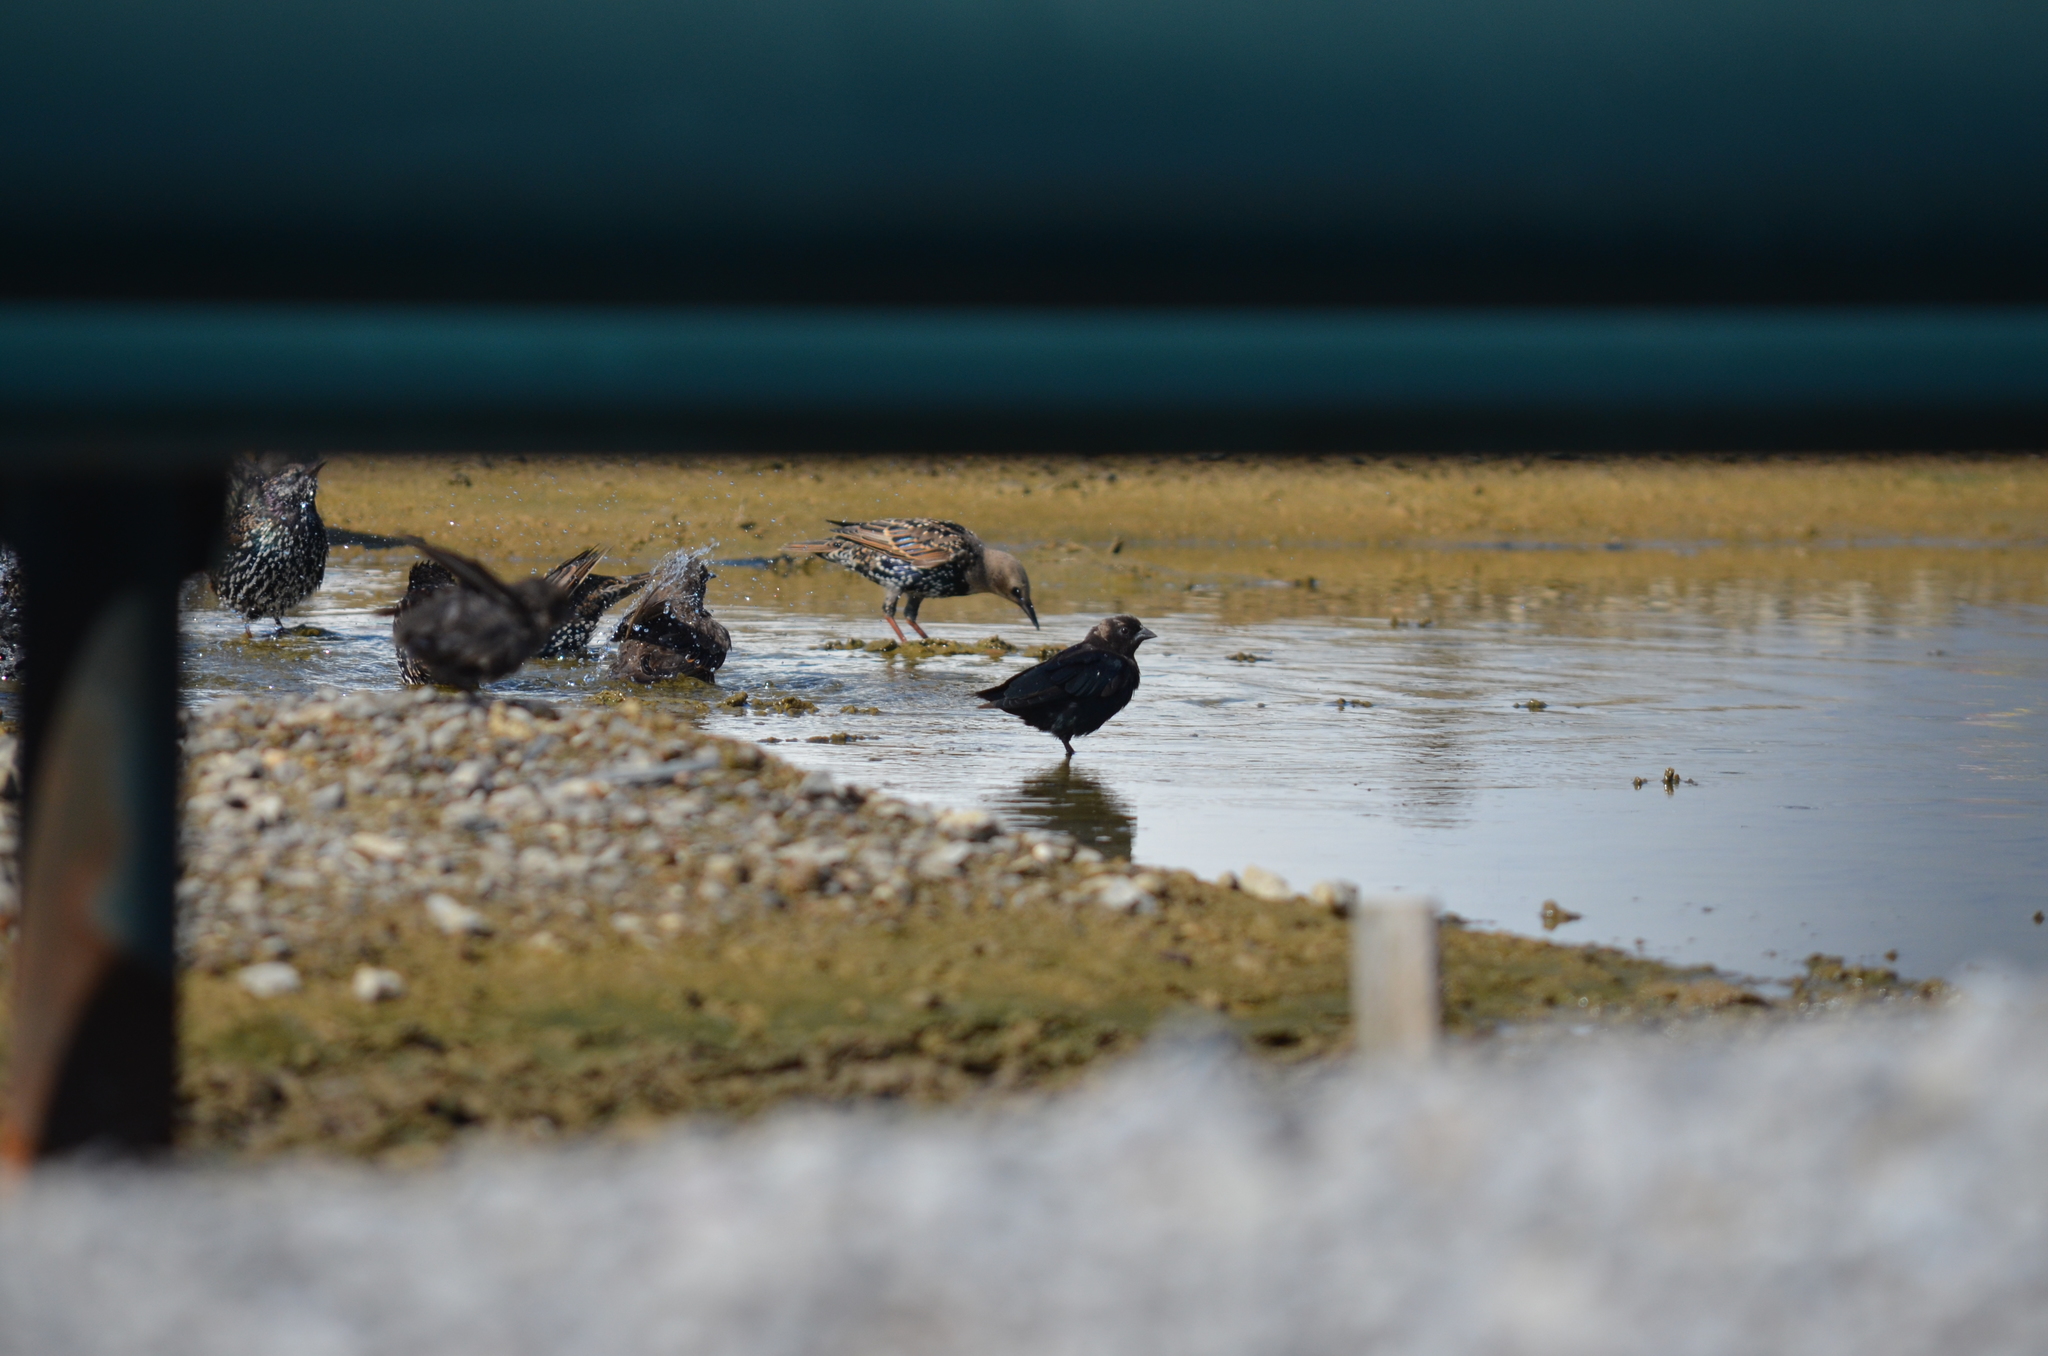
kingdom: Animalia
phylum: Chordata
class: Aves
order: Passeriformes
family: Icteridae
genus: Molothrus
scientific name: Molothrus ater
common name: Brown-headed cowbird
